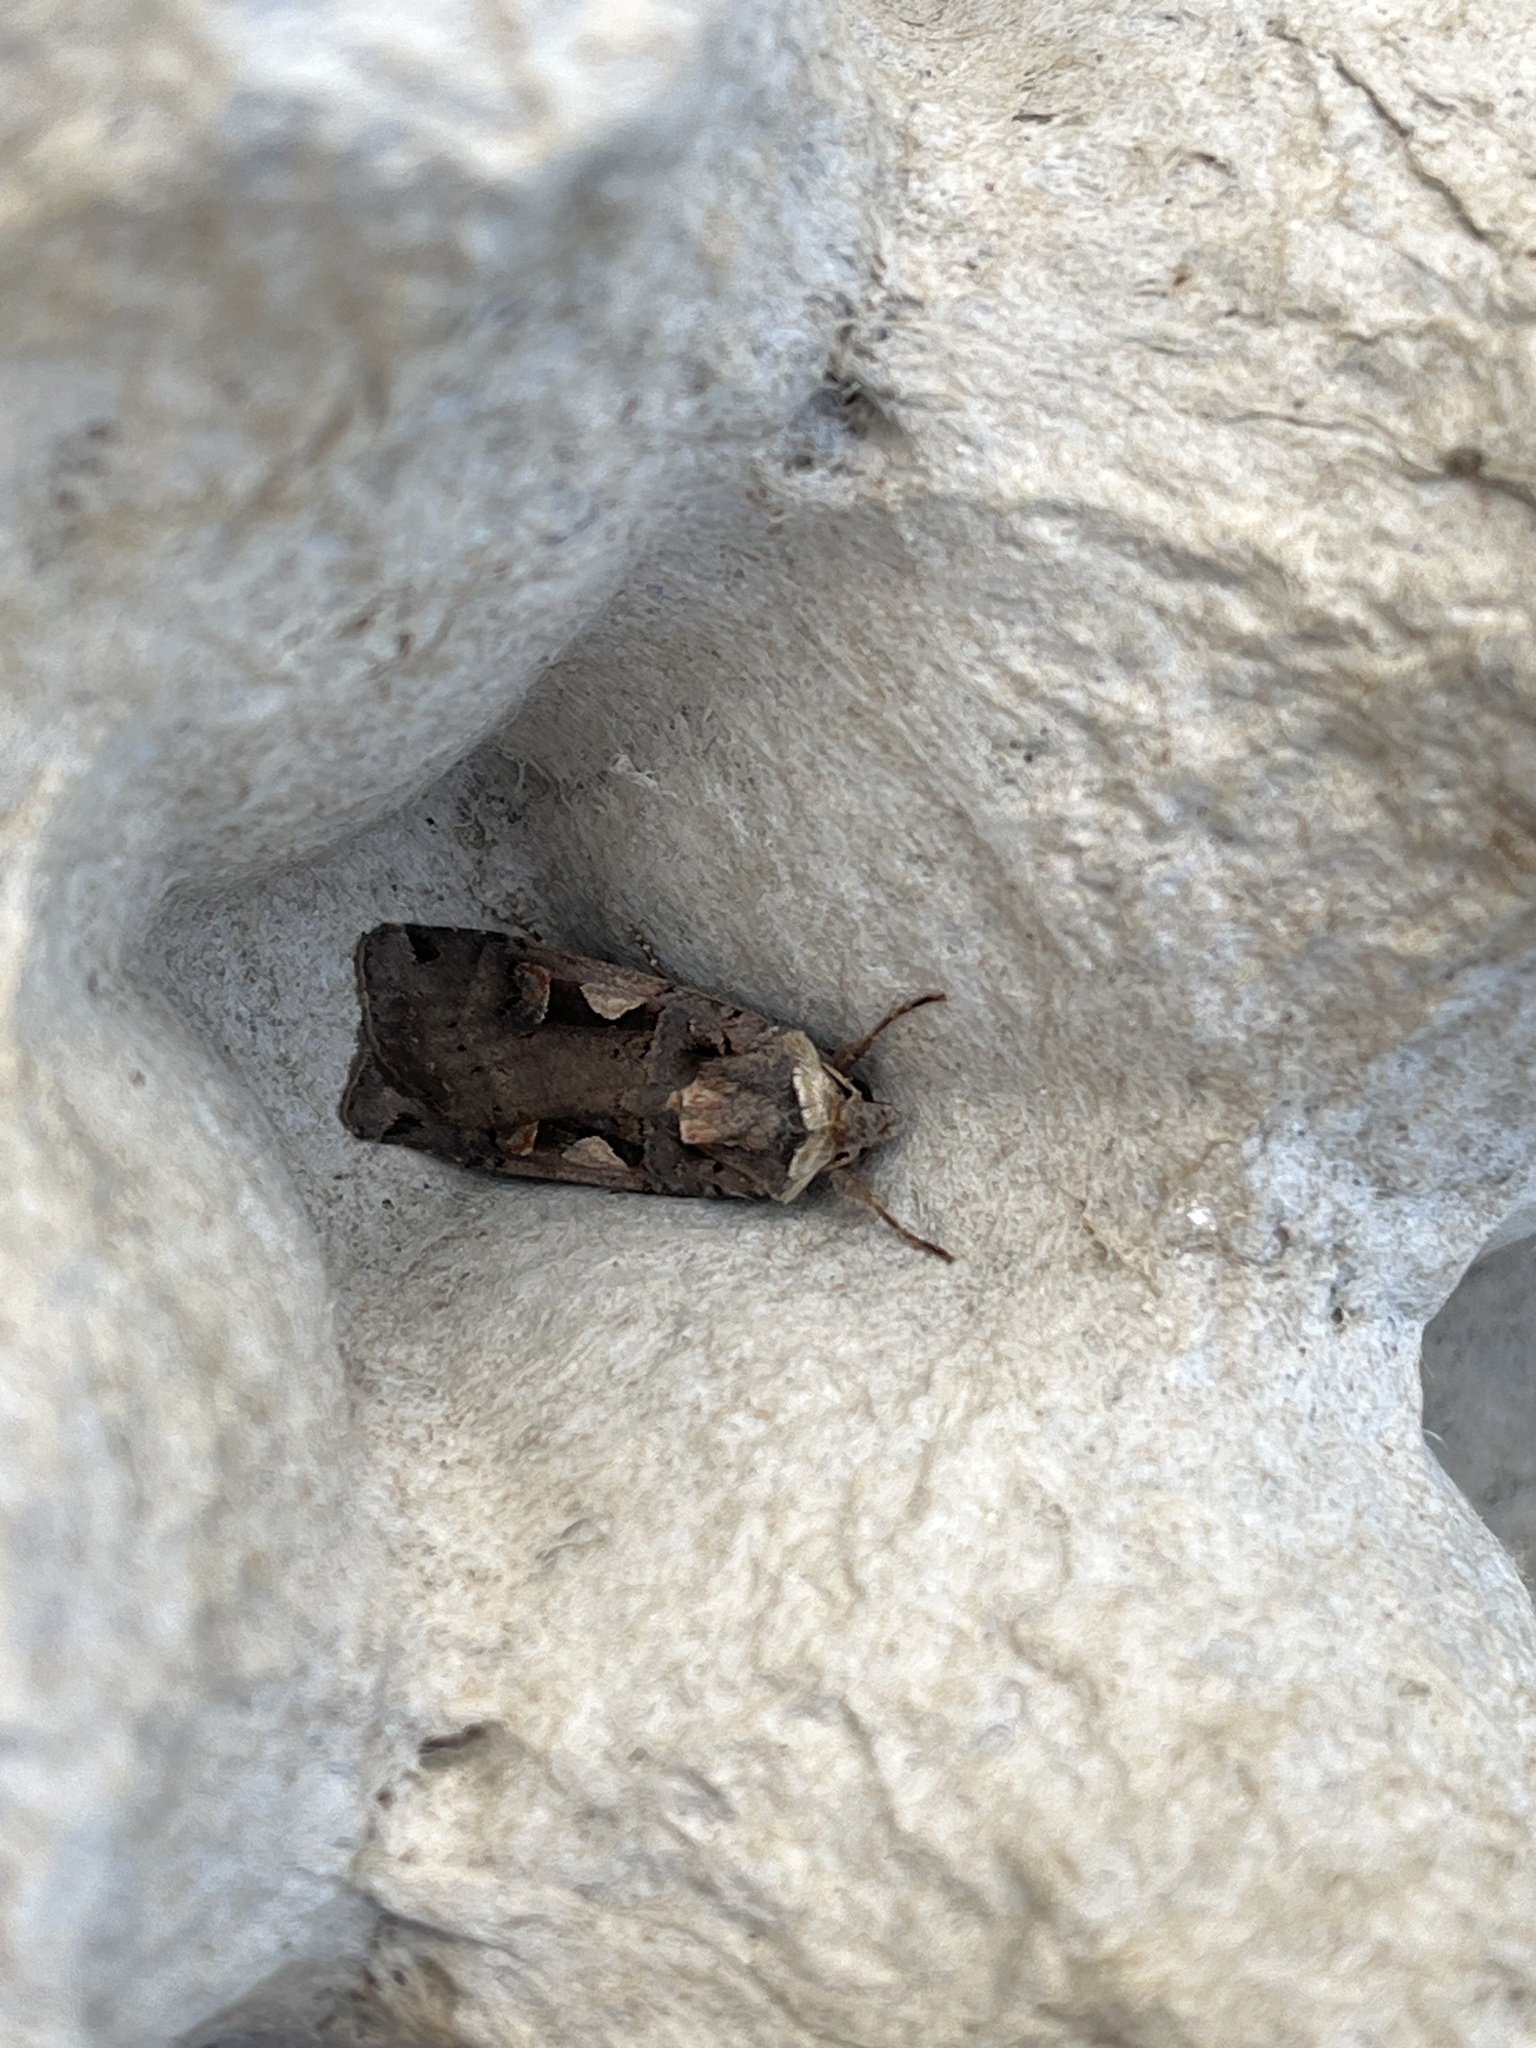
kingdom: Animalia
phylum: Arthropoda
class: Insecta
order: Lepidoptera
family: Noctuidae
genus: Xestia
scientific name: Xestia c-nigrum
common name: Setaceous hebrew character
